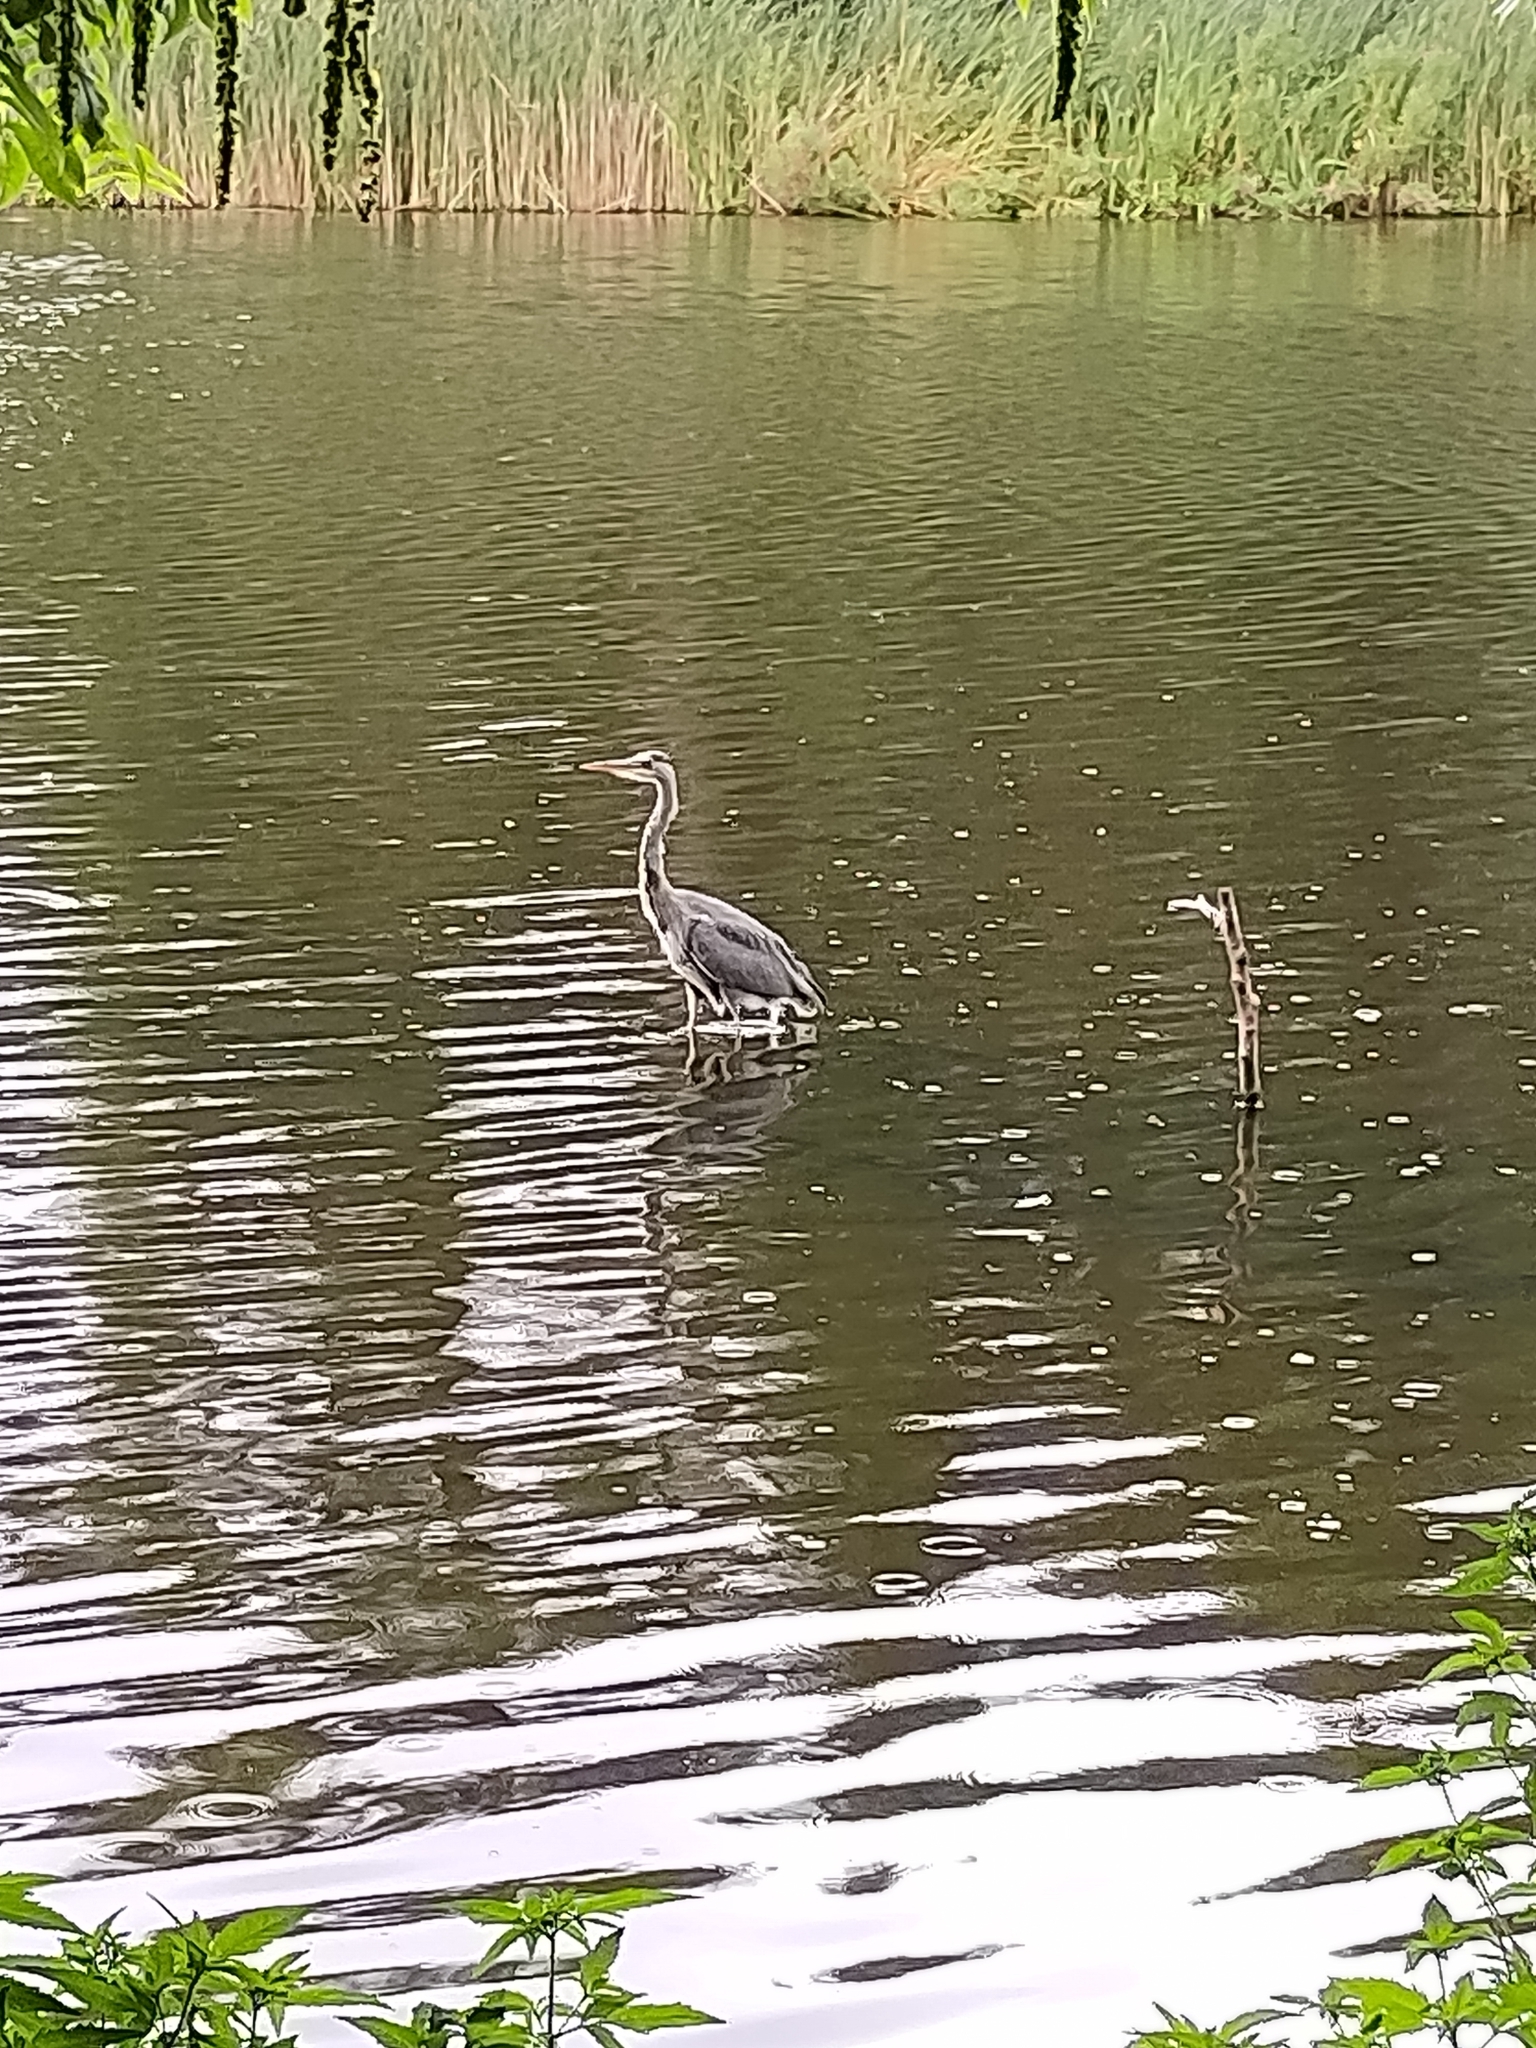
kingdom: Animalia
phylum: Chordata
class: Aves
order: Pelecaniformes
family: Ardeidae
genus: Ardea
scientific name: Ardea cinerea
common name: Grey heron
